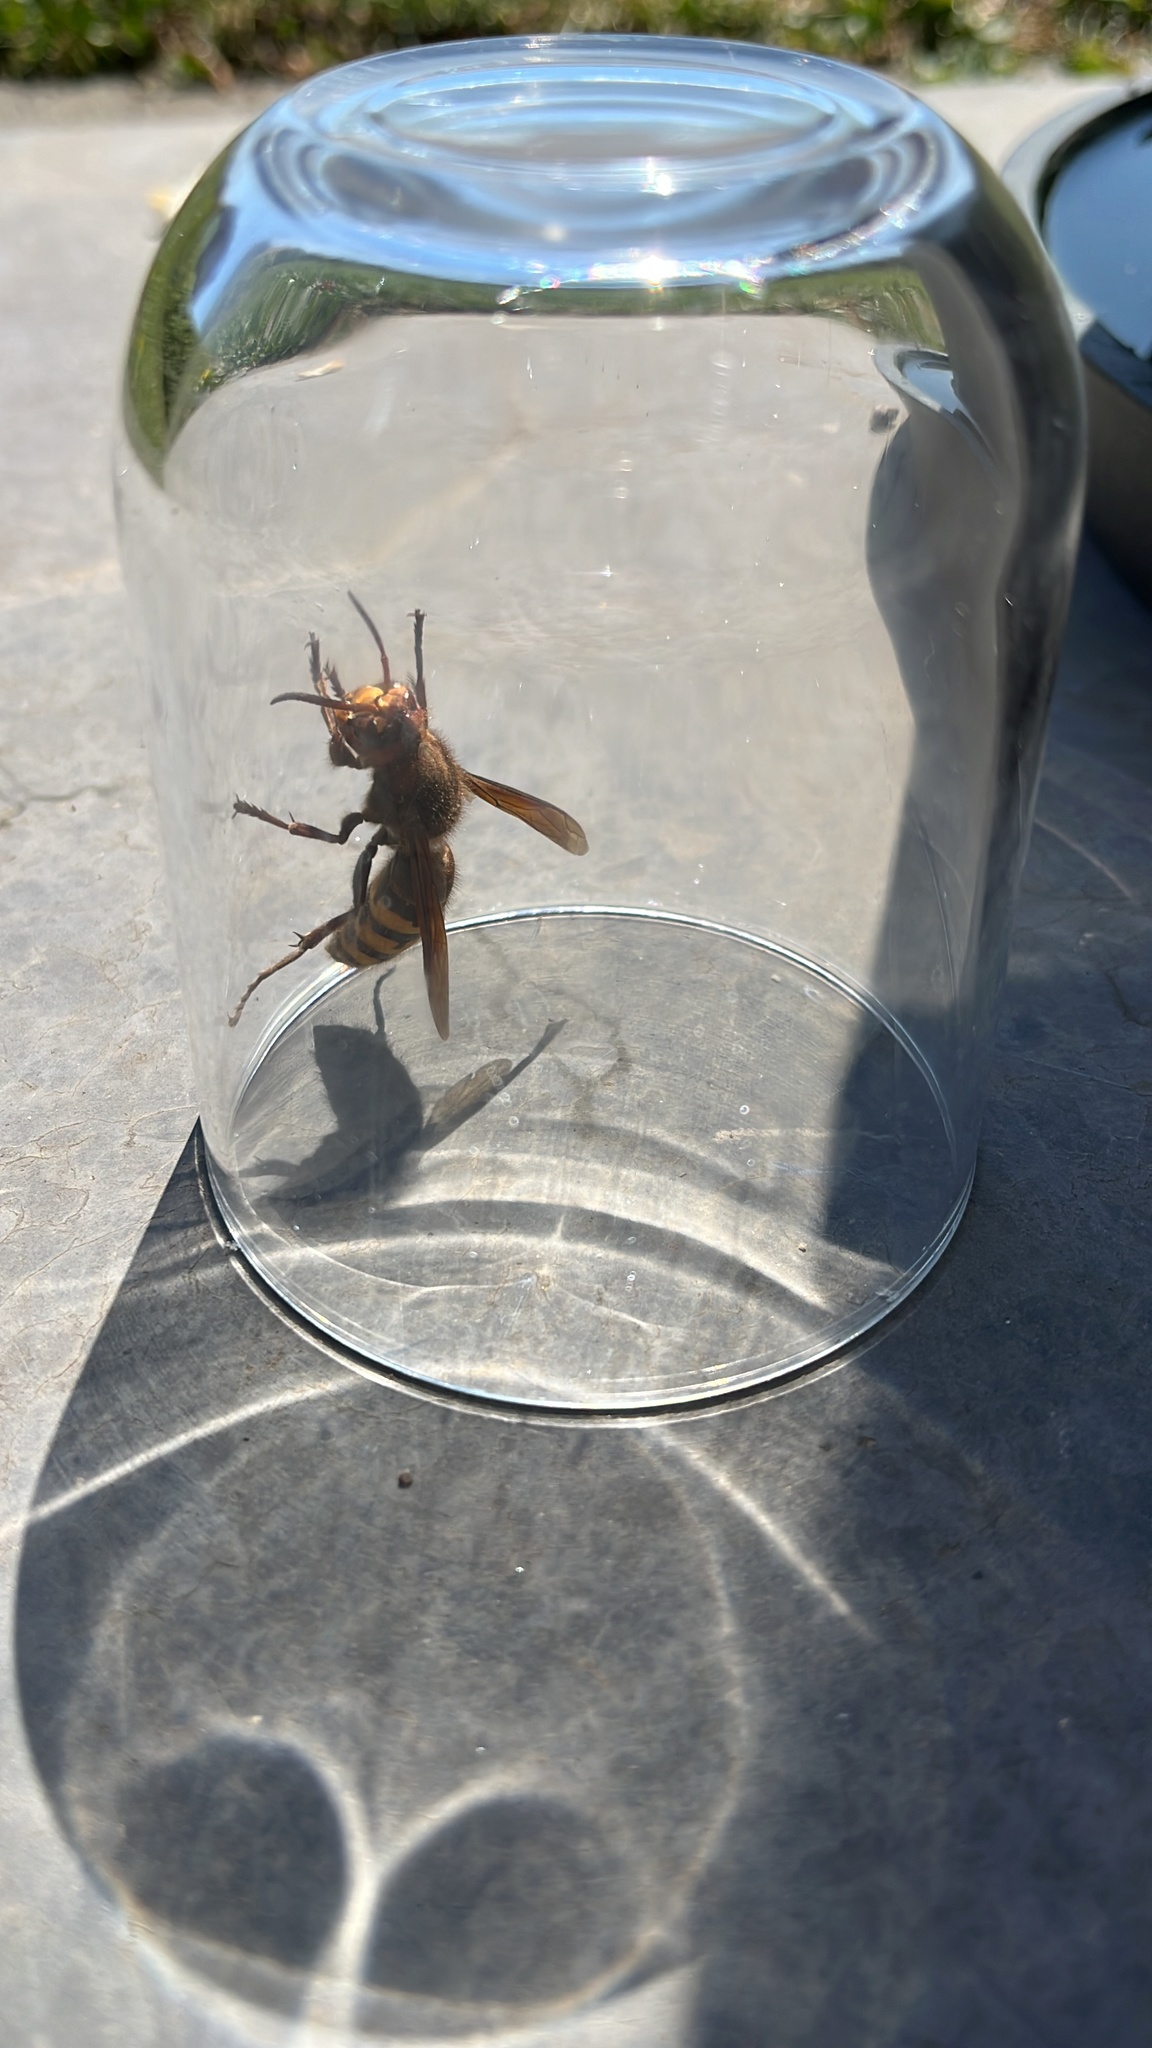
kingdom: Animalia
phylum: Arthropoda
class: Insecta
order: Hymenoptera
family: Vespidae
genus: Vespa
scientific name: Vespa crabro
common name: Hornet
